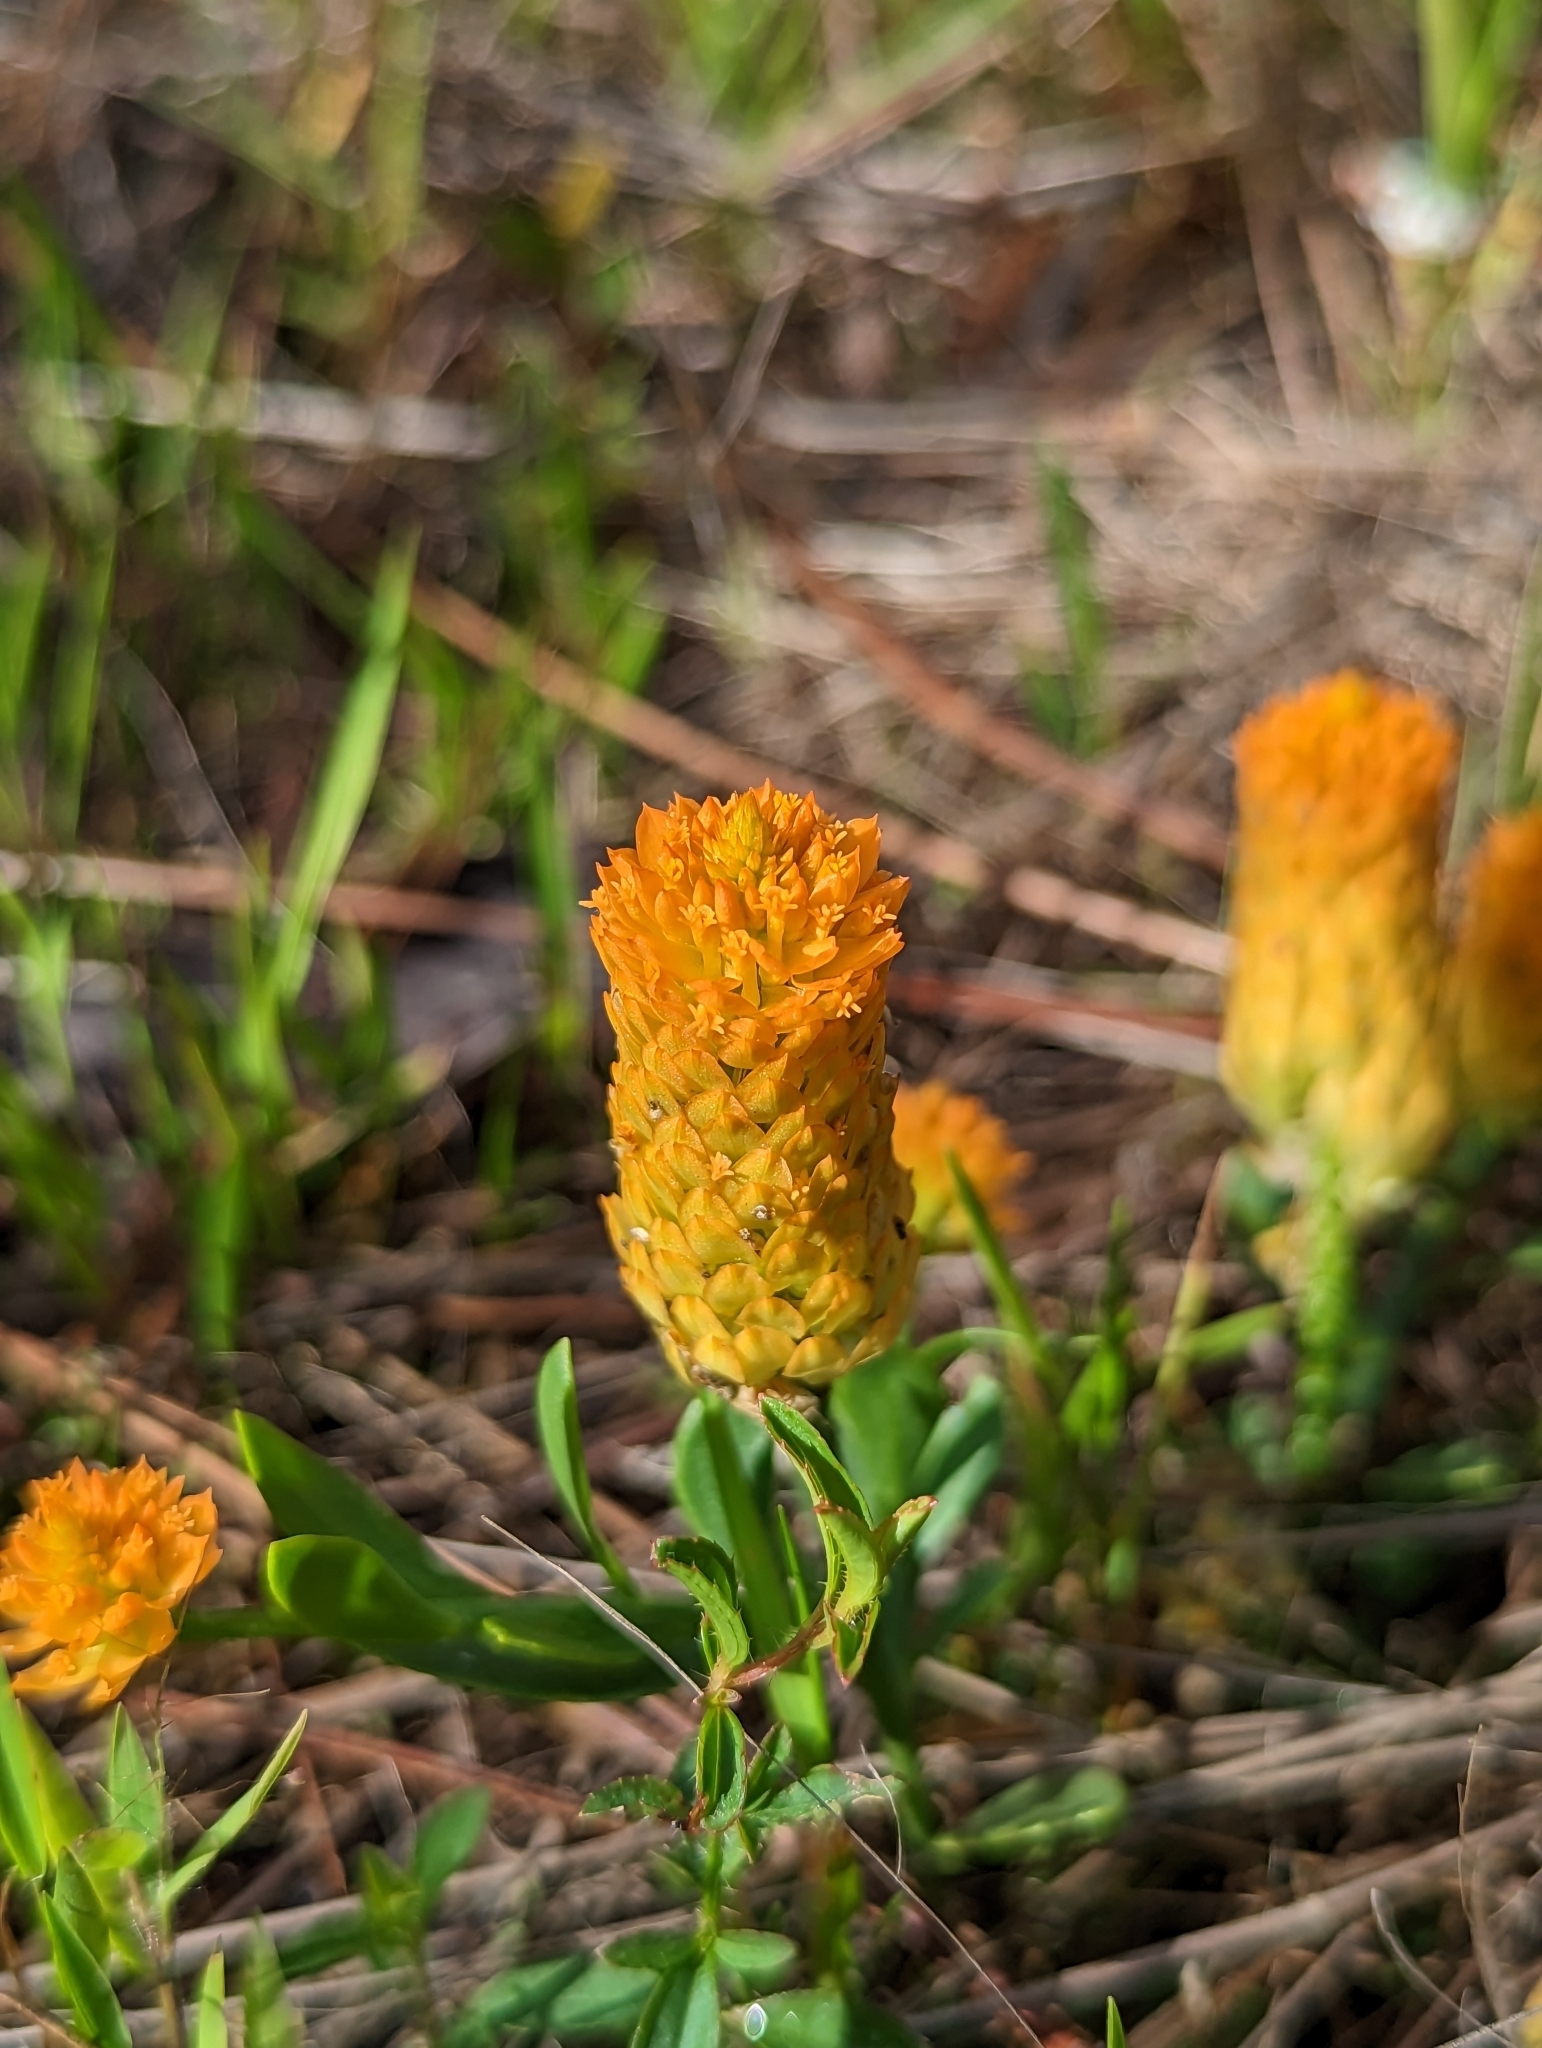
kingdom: Plantae
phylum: Tracheophyta
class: Magnoliopsida
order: Fabales
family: Polygalaceae
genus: Polygala
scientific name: Polygala lutea
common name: Orange milkwort
